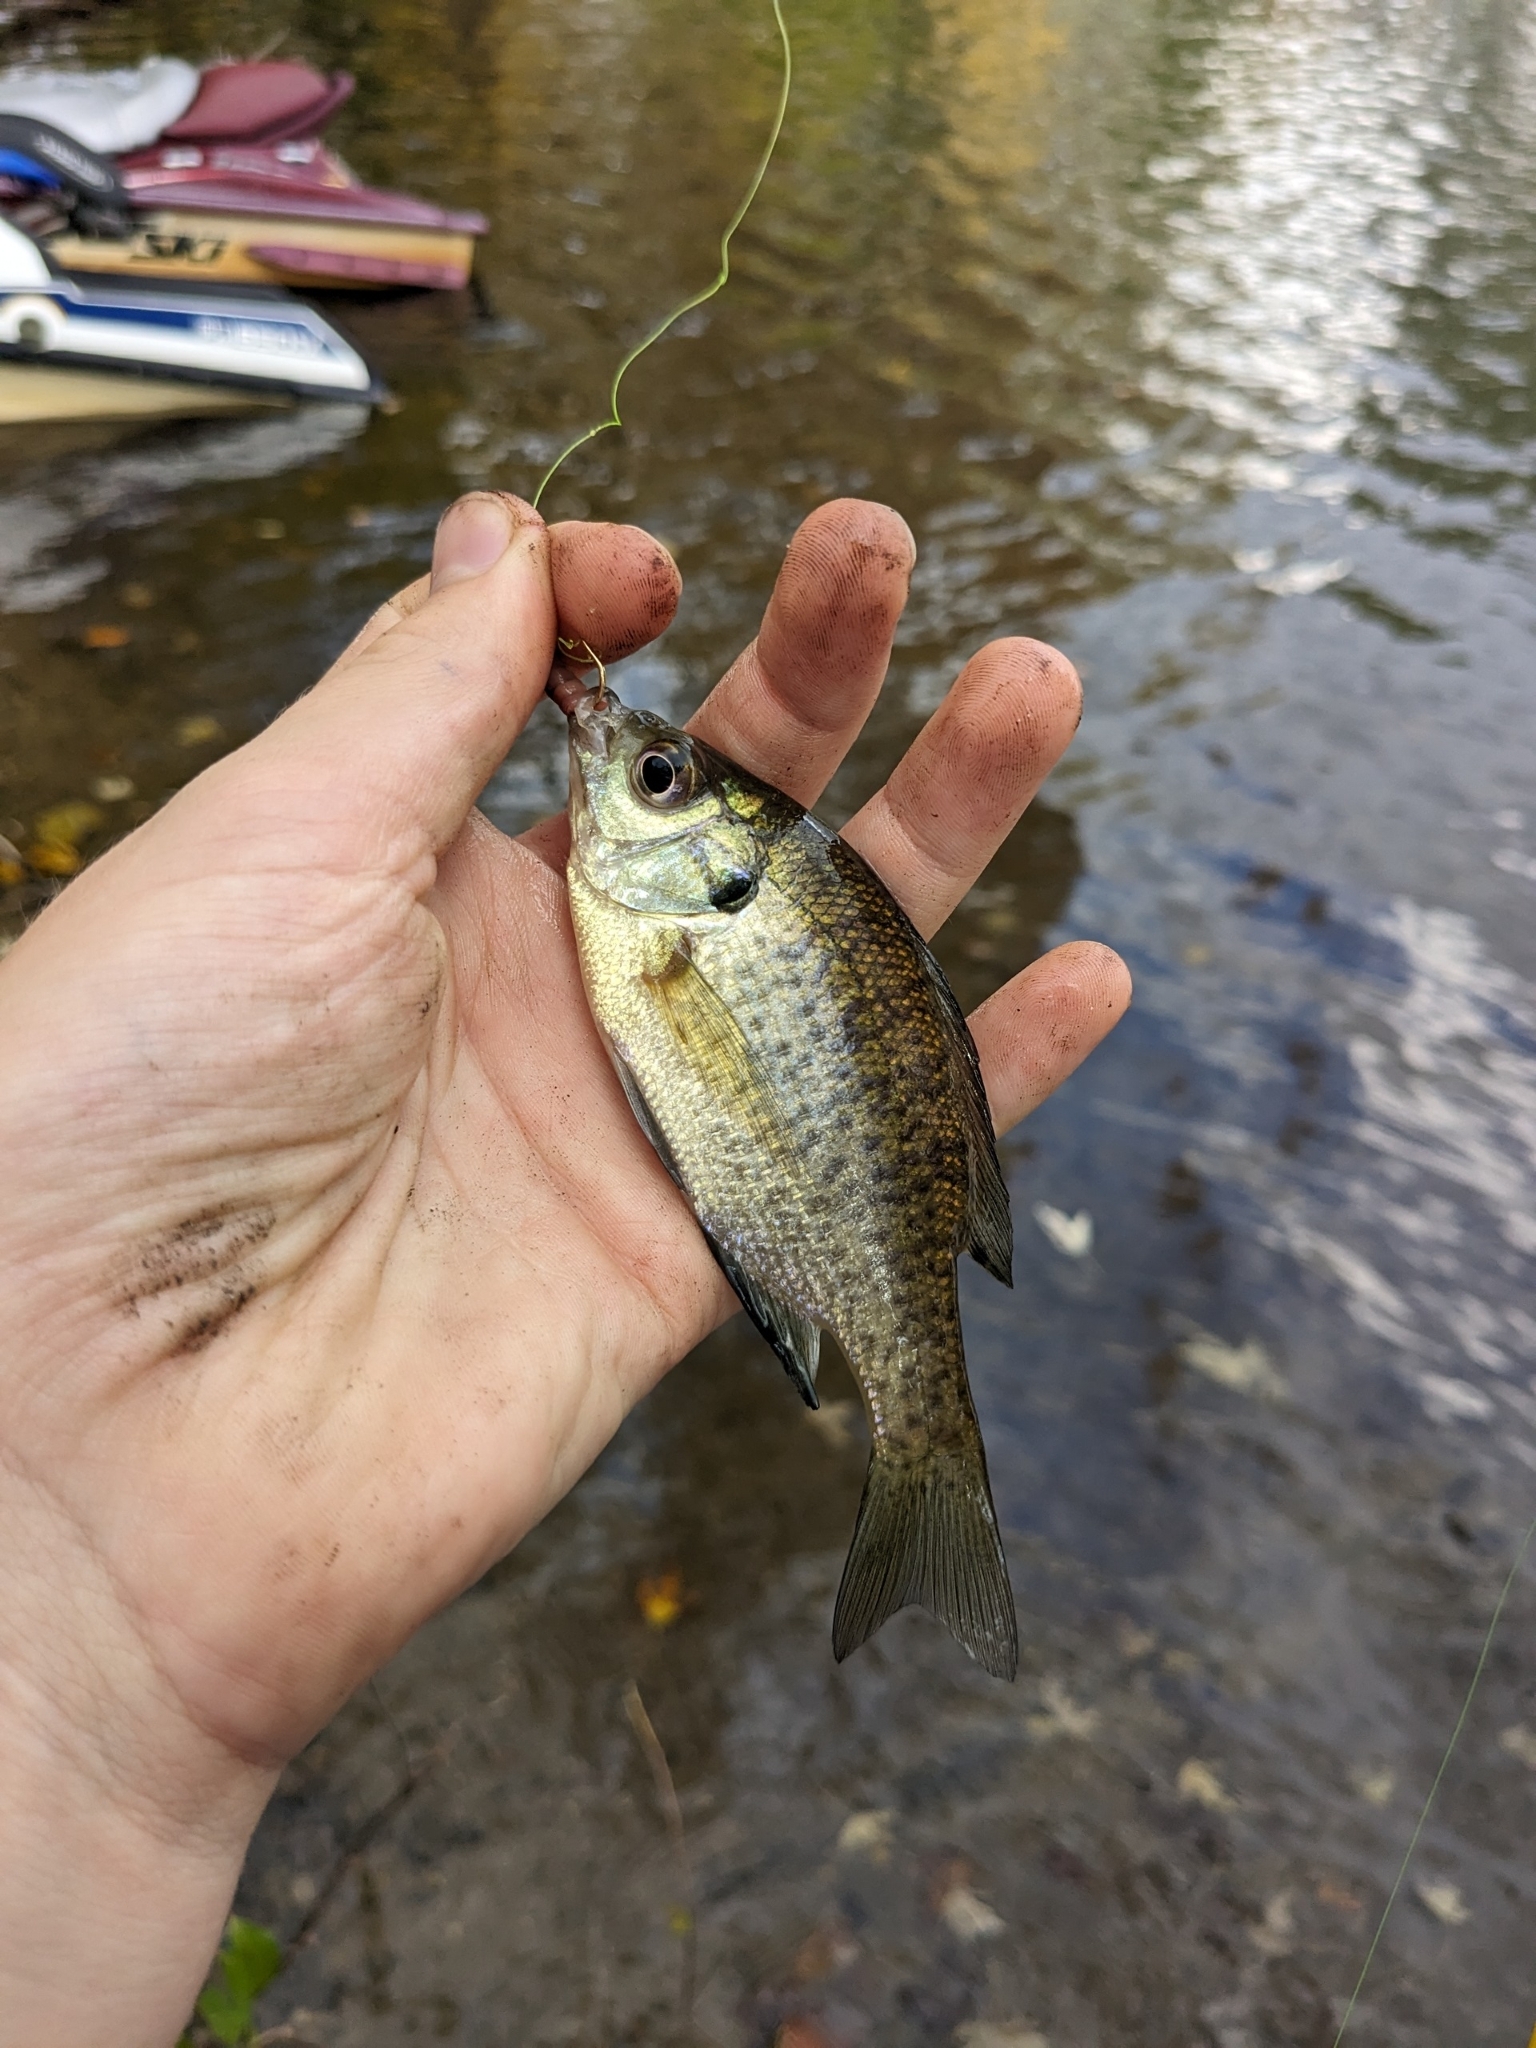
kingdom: Animalia
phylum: Chordata
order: Perciformes
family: Centrarchidae
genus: Lepomis
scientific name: Lepomis macrochirus
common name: Bluegill
